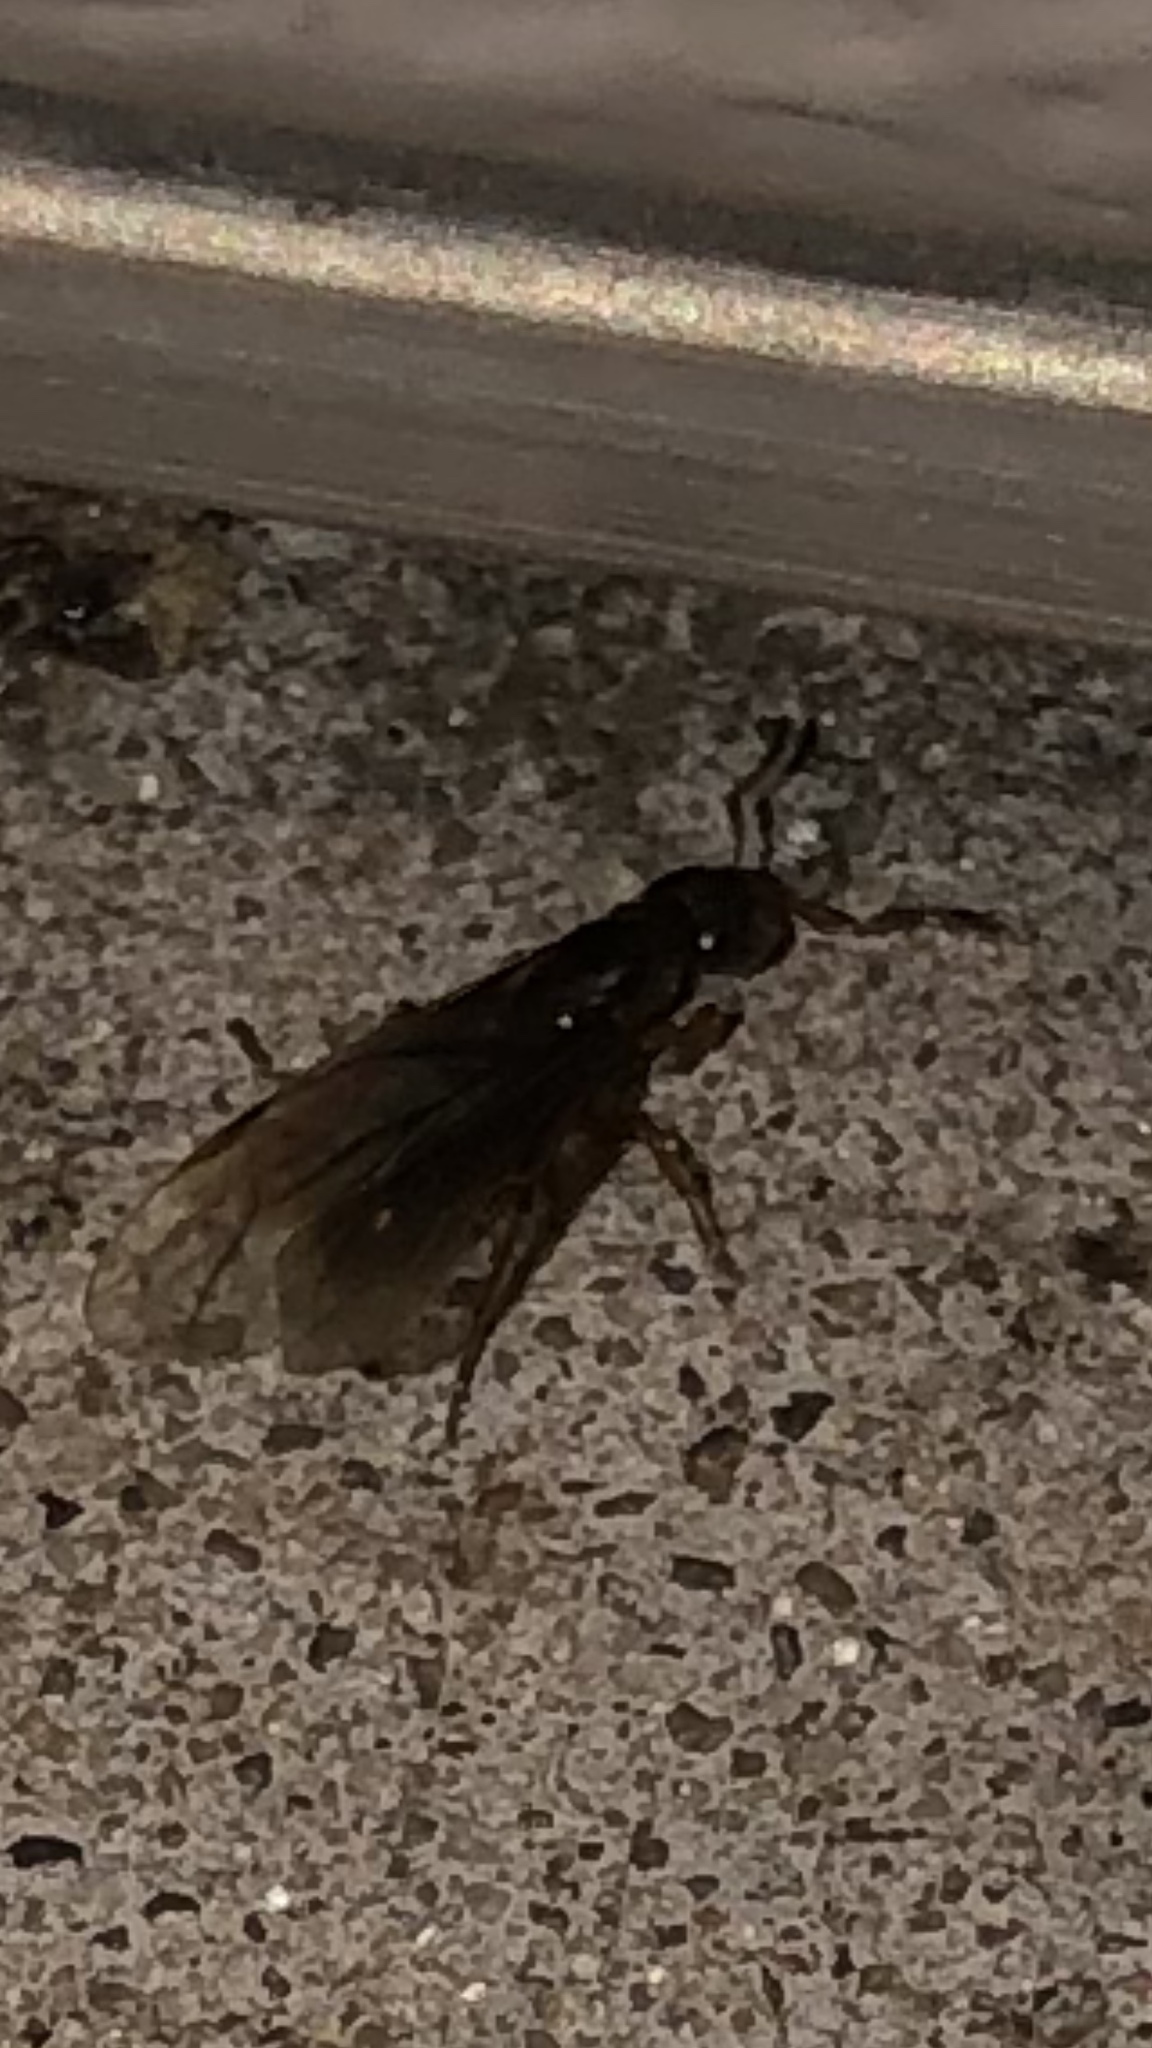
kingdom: Animalia
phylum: Arthropoda
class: Insecta
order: Hymenoptera
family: Formicidae
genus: Lasius
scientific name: Lasius claviger
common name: Common citronella ant
